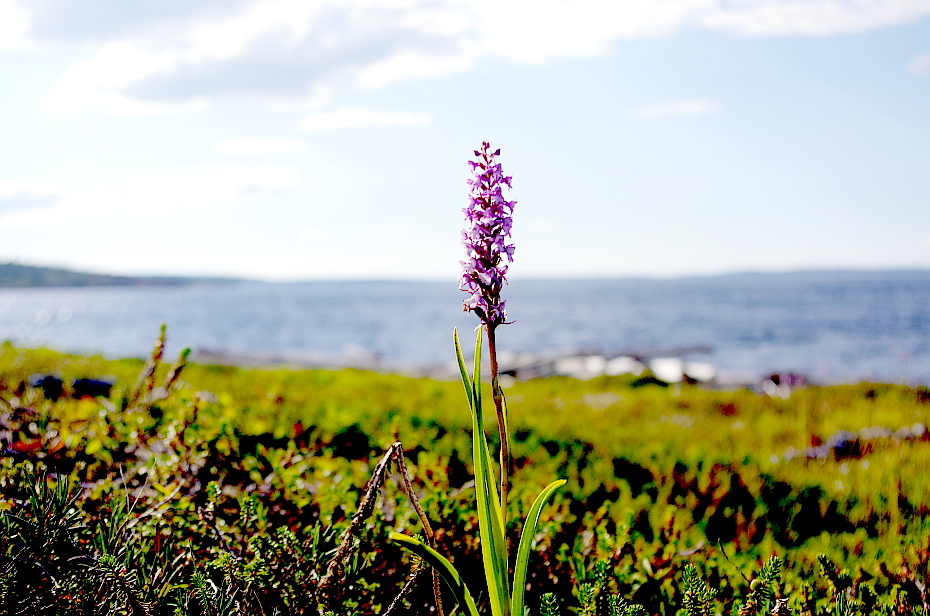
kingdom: Plantae
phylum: Tracheophyta
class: Liliopsida
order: Asparagales
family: Orchidaceae
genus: Gymnadenia
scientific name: Gymnadenia conopsea
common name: Fragrant orchid
